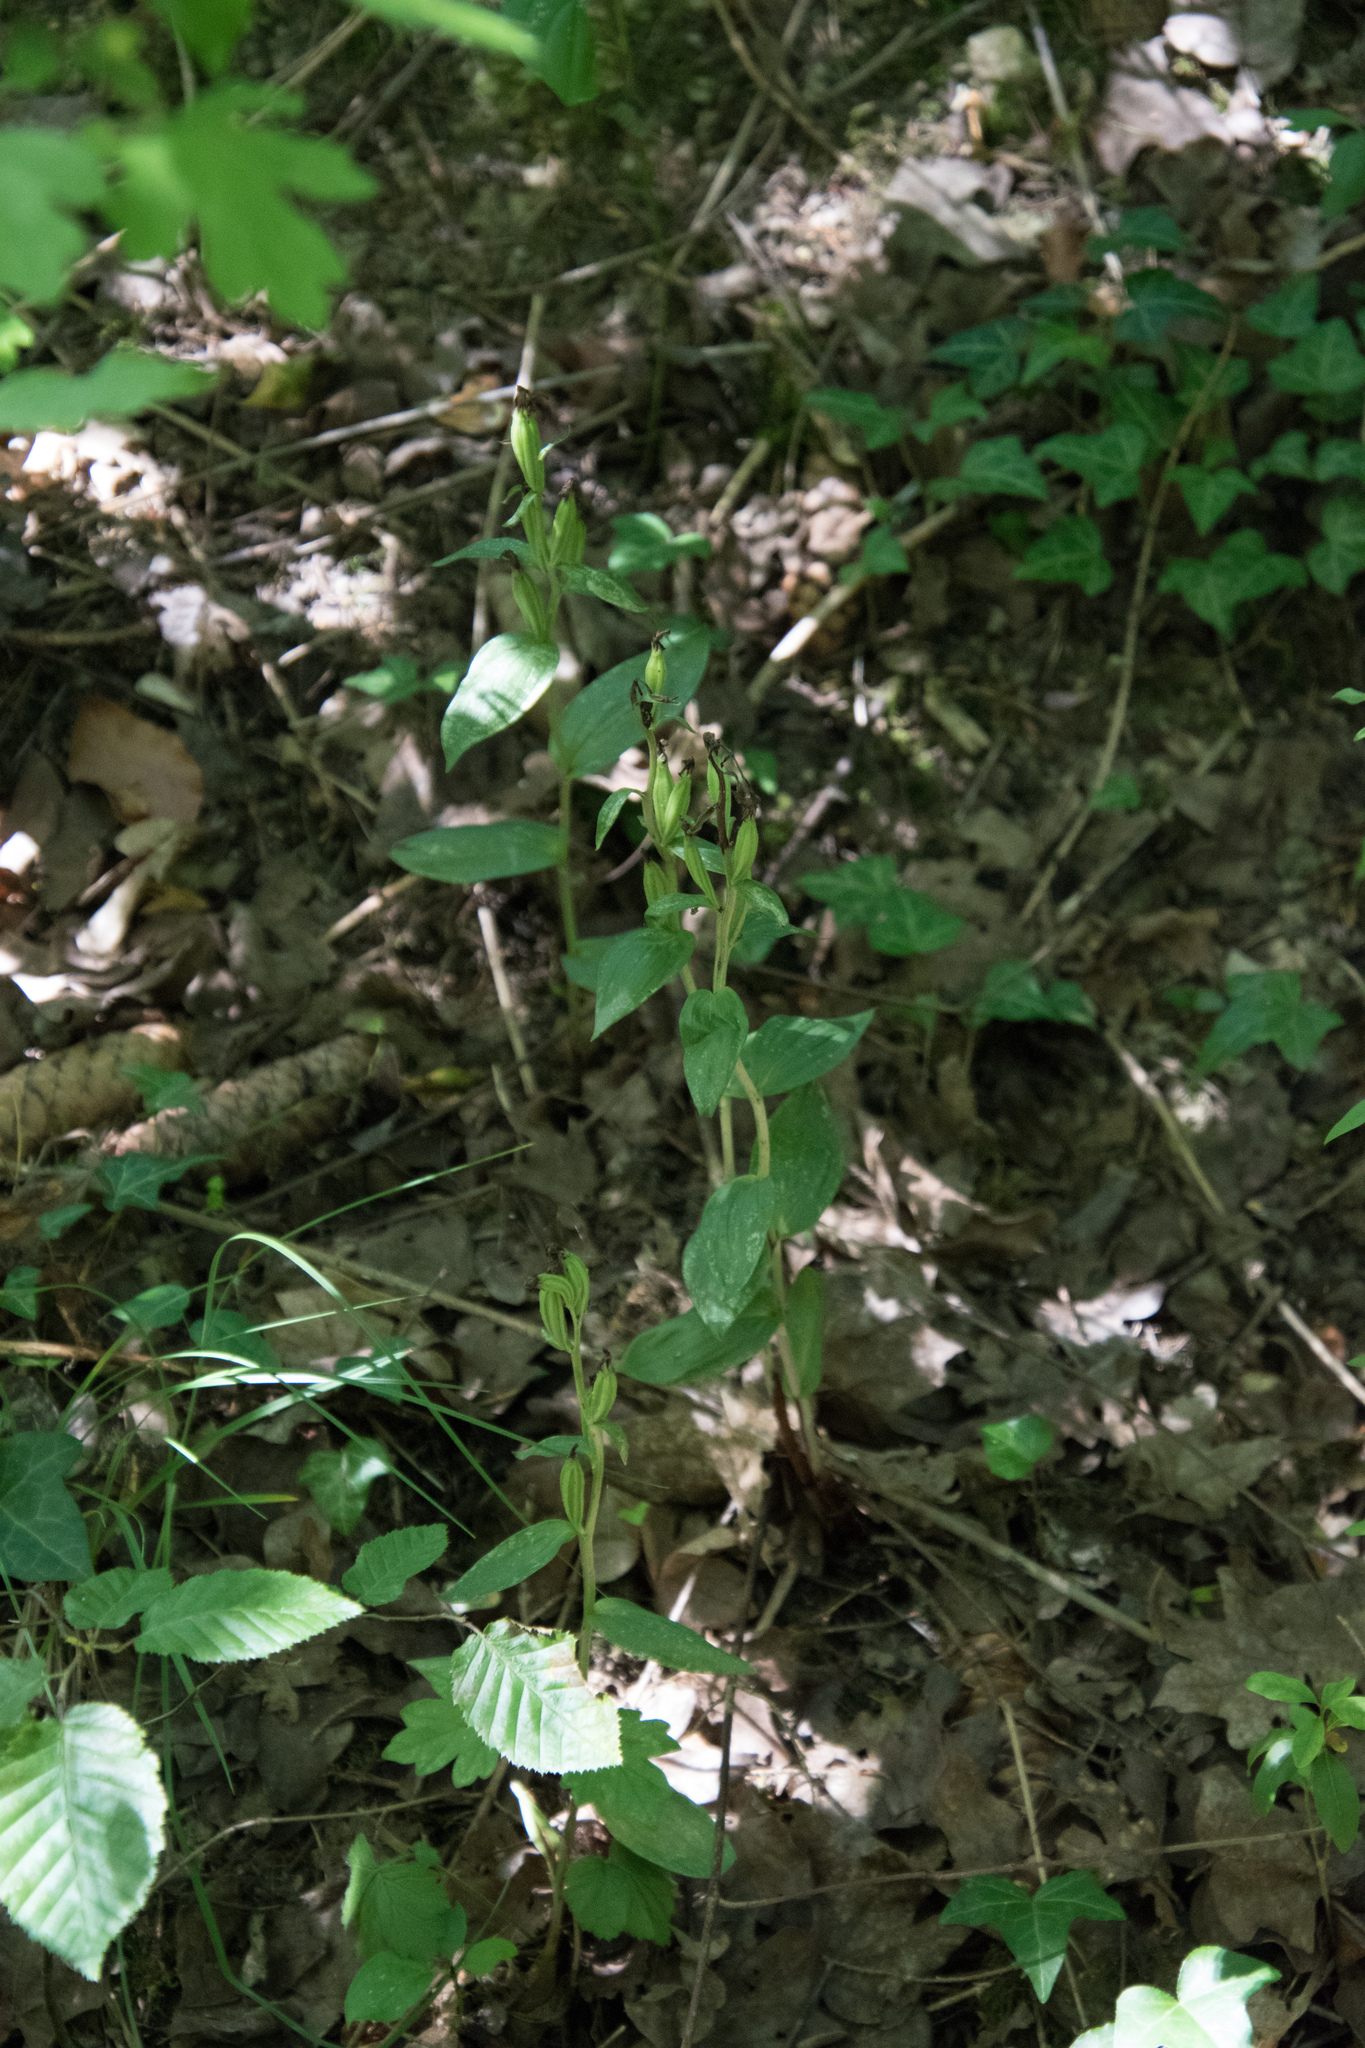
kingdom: Plantae
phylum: Tracheophyta
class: Liliopsida
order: Asparagales
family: Orchidaceae
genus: Cephalanthera
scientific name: Cephalanthera damasonium
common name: White helleborine
